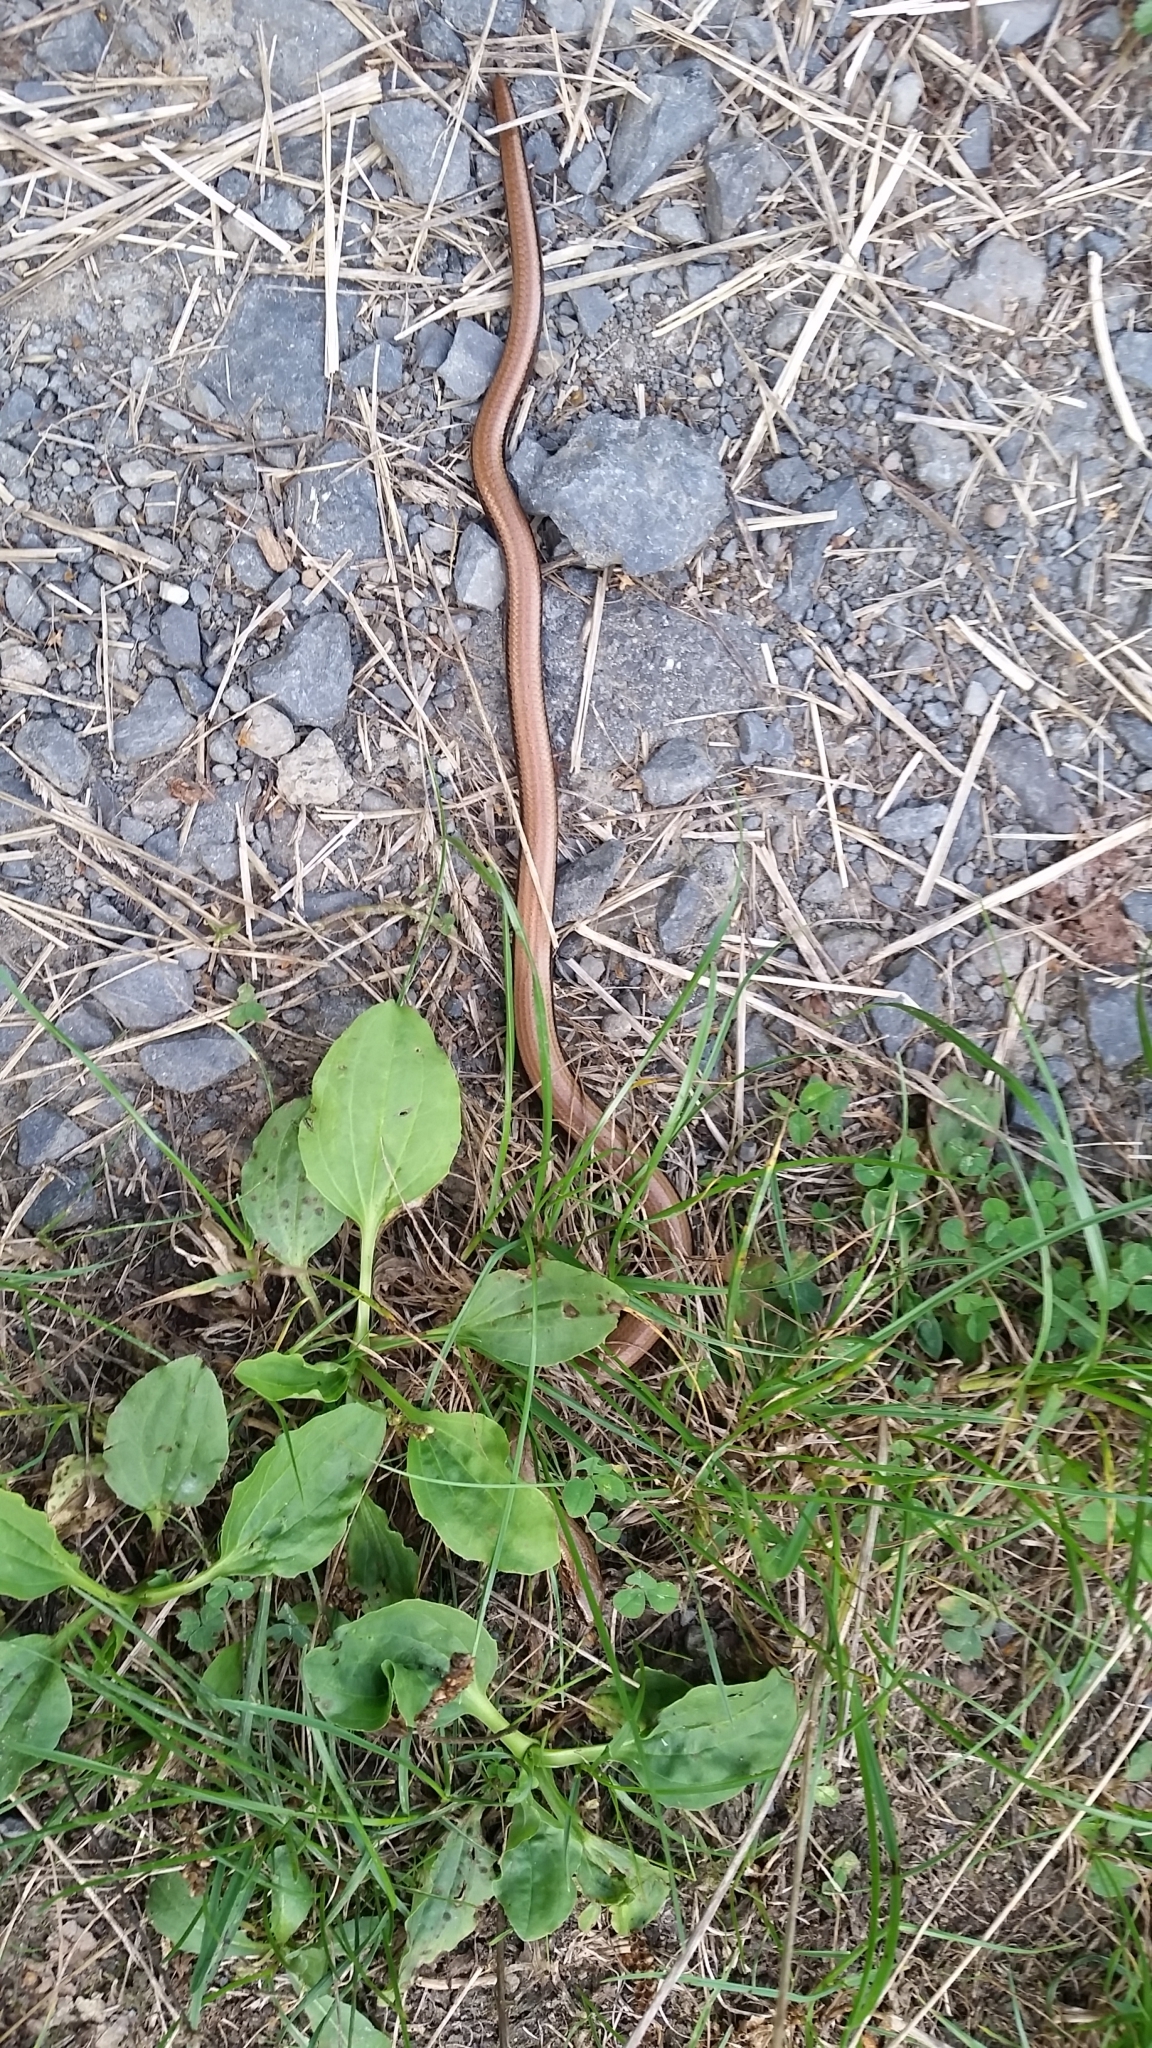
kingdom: Animalia
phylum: Chordata
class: Squamata
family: Anguidae
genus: Anguis
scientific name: Anguis fragilis
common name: Slow worm
